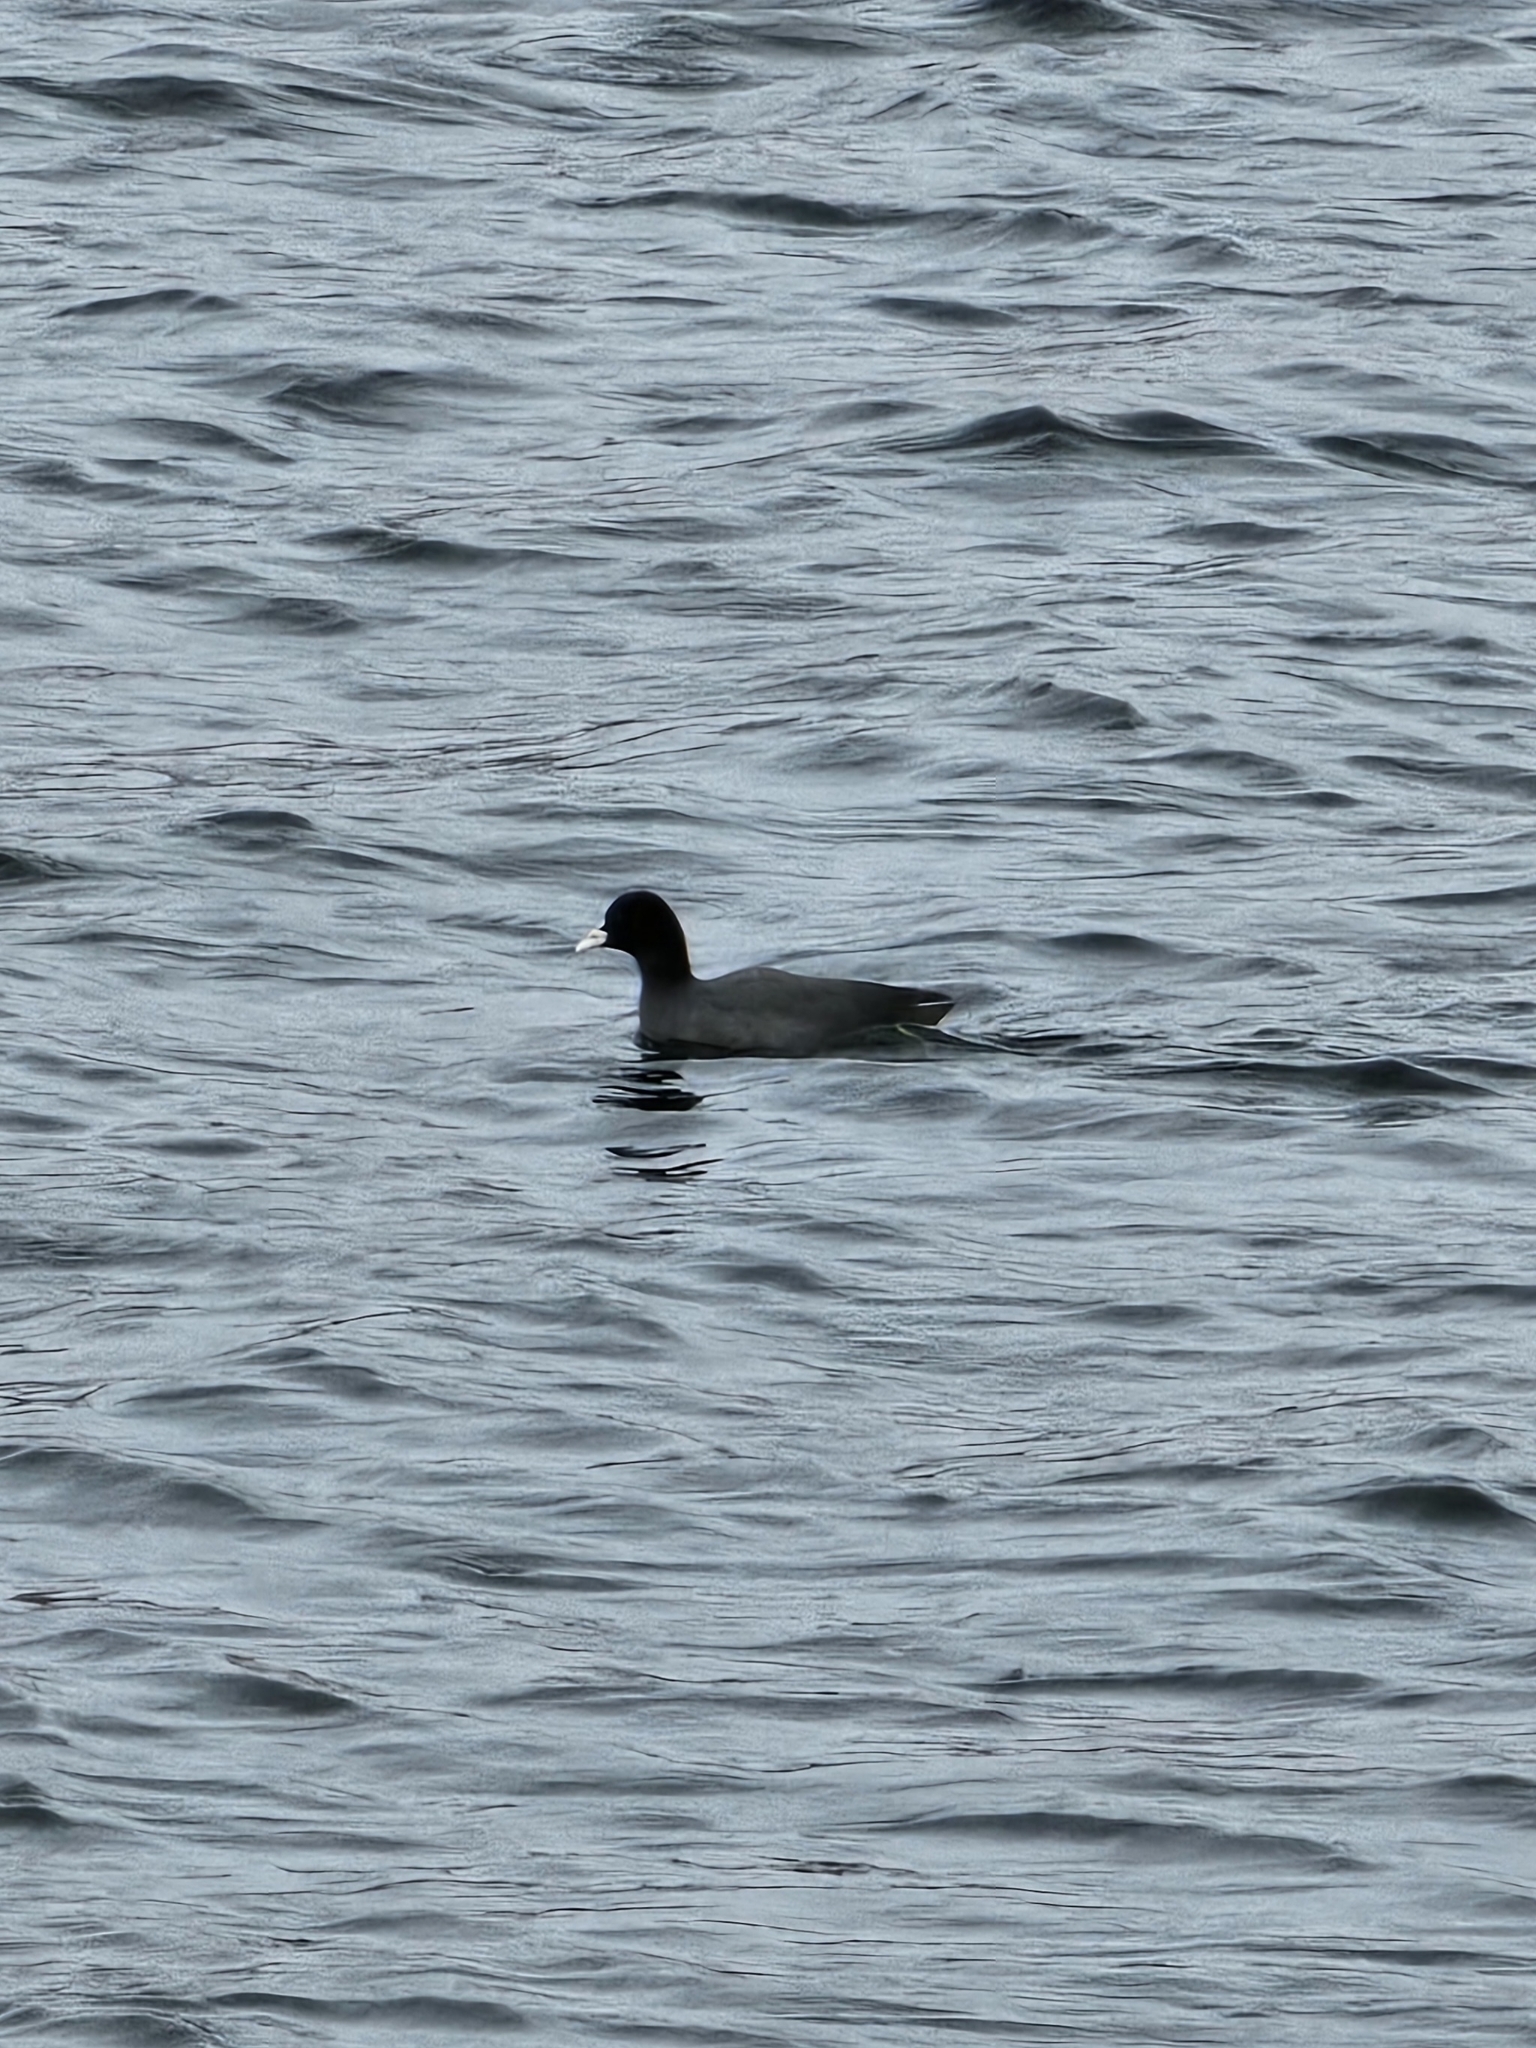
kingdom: Animalia
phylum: Chordata
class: Aves
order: Gruiformes
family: Rallidae
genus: Fulica
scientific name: Fulica atra
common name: Eurasian coot
